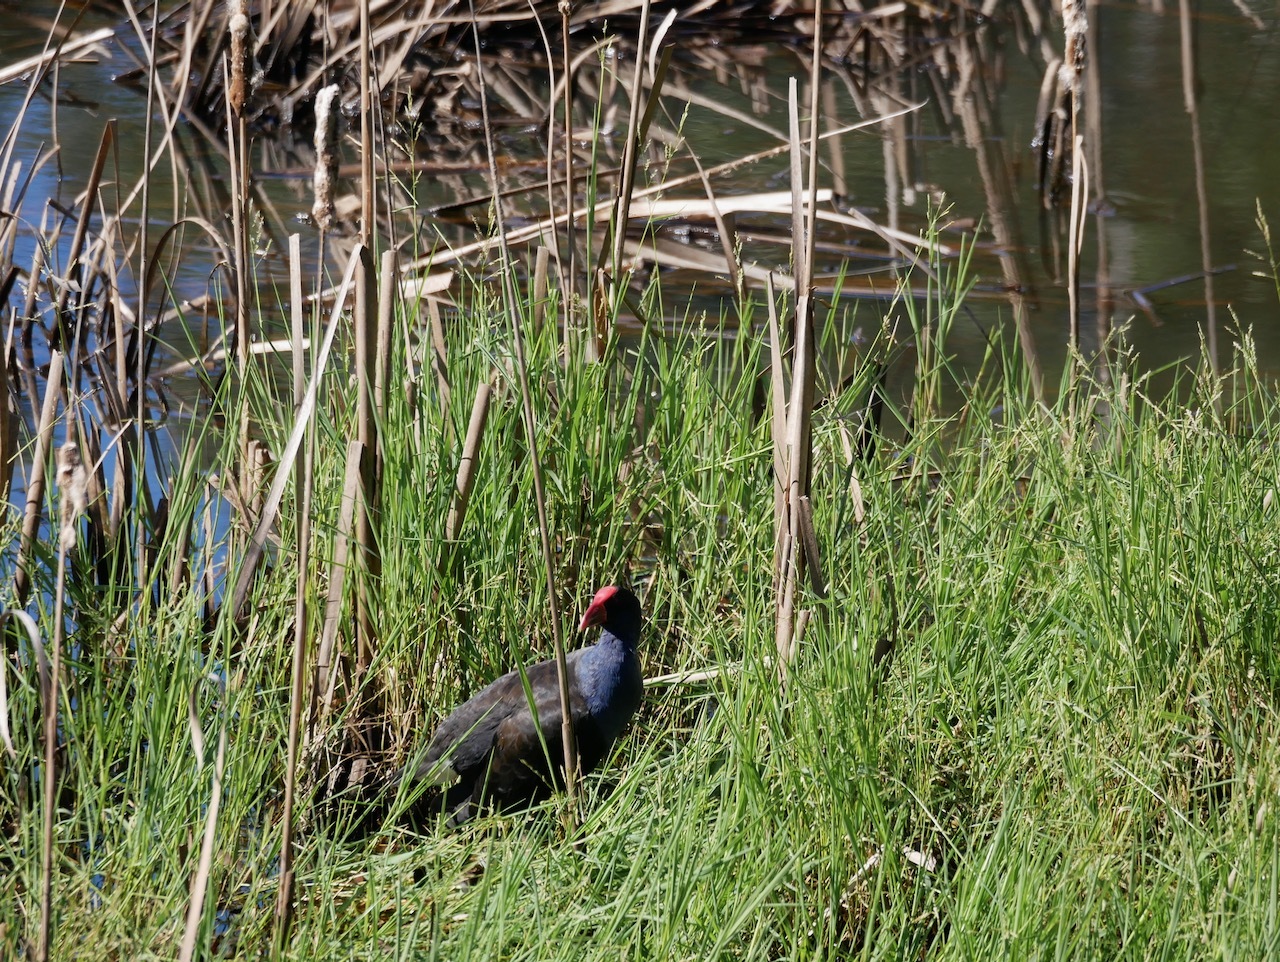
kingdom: Animalia
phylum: Chordata
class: Aves
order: Gruiformes
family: Rallidae
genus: Porphyrio
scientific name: Porphyrio melanotus
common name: Australasian swamphen
